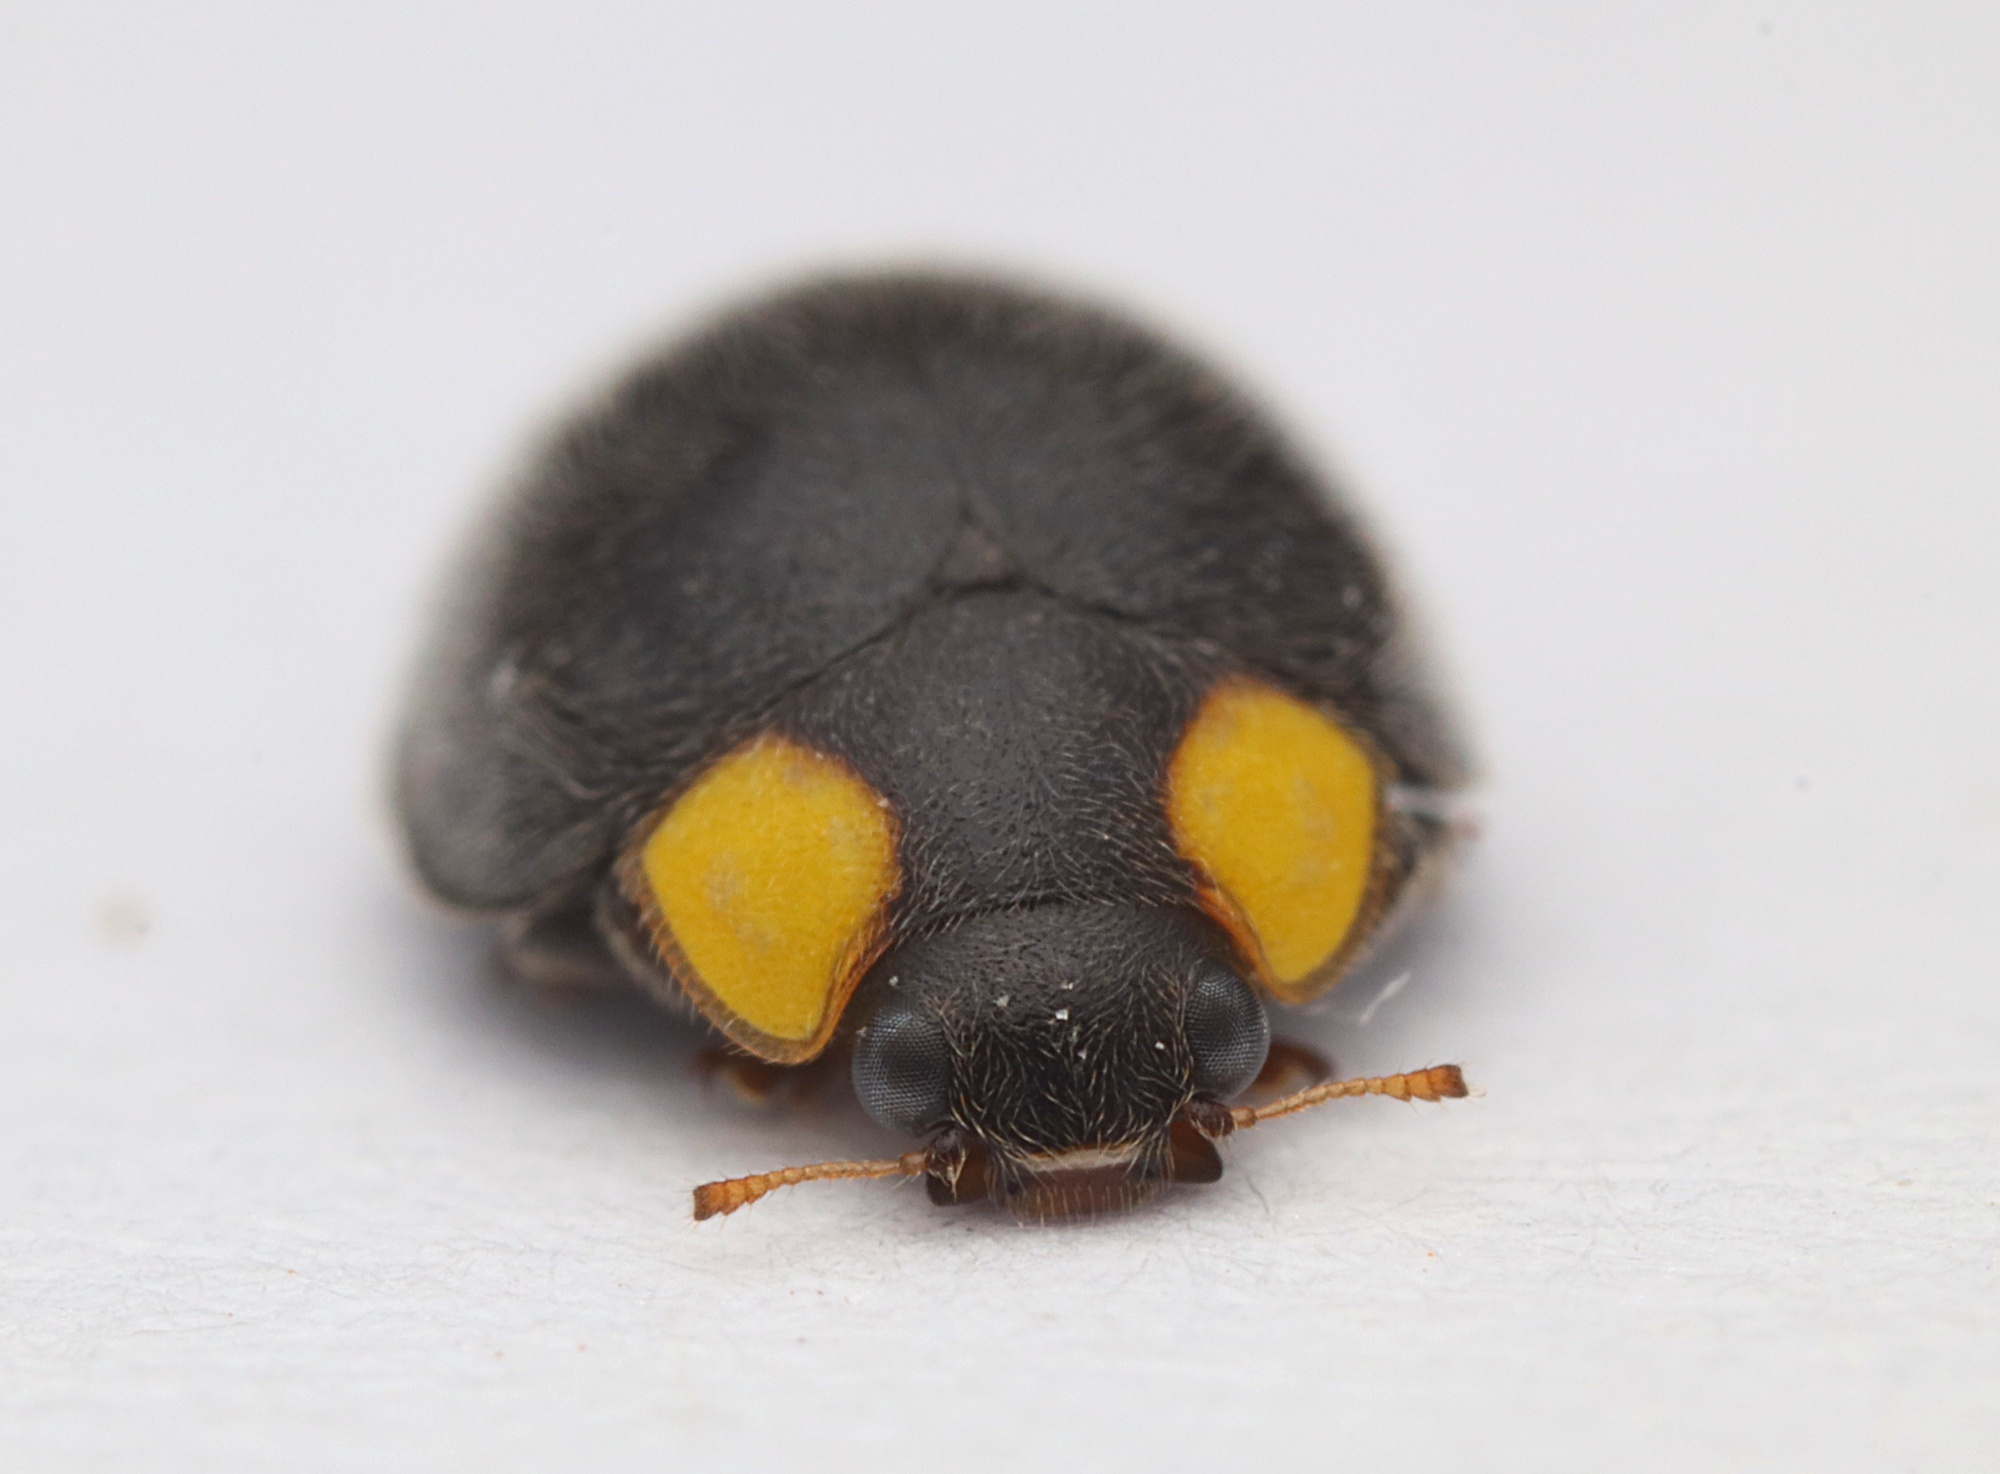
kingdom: Animalia
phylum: Arthropoda
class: Insecta
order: Coleoptera
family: Coccinellidae
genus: Scymnodes
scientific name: Scymnodes lividigaster
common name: Yellowshouldered lady beetle
